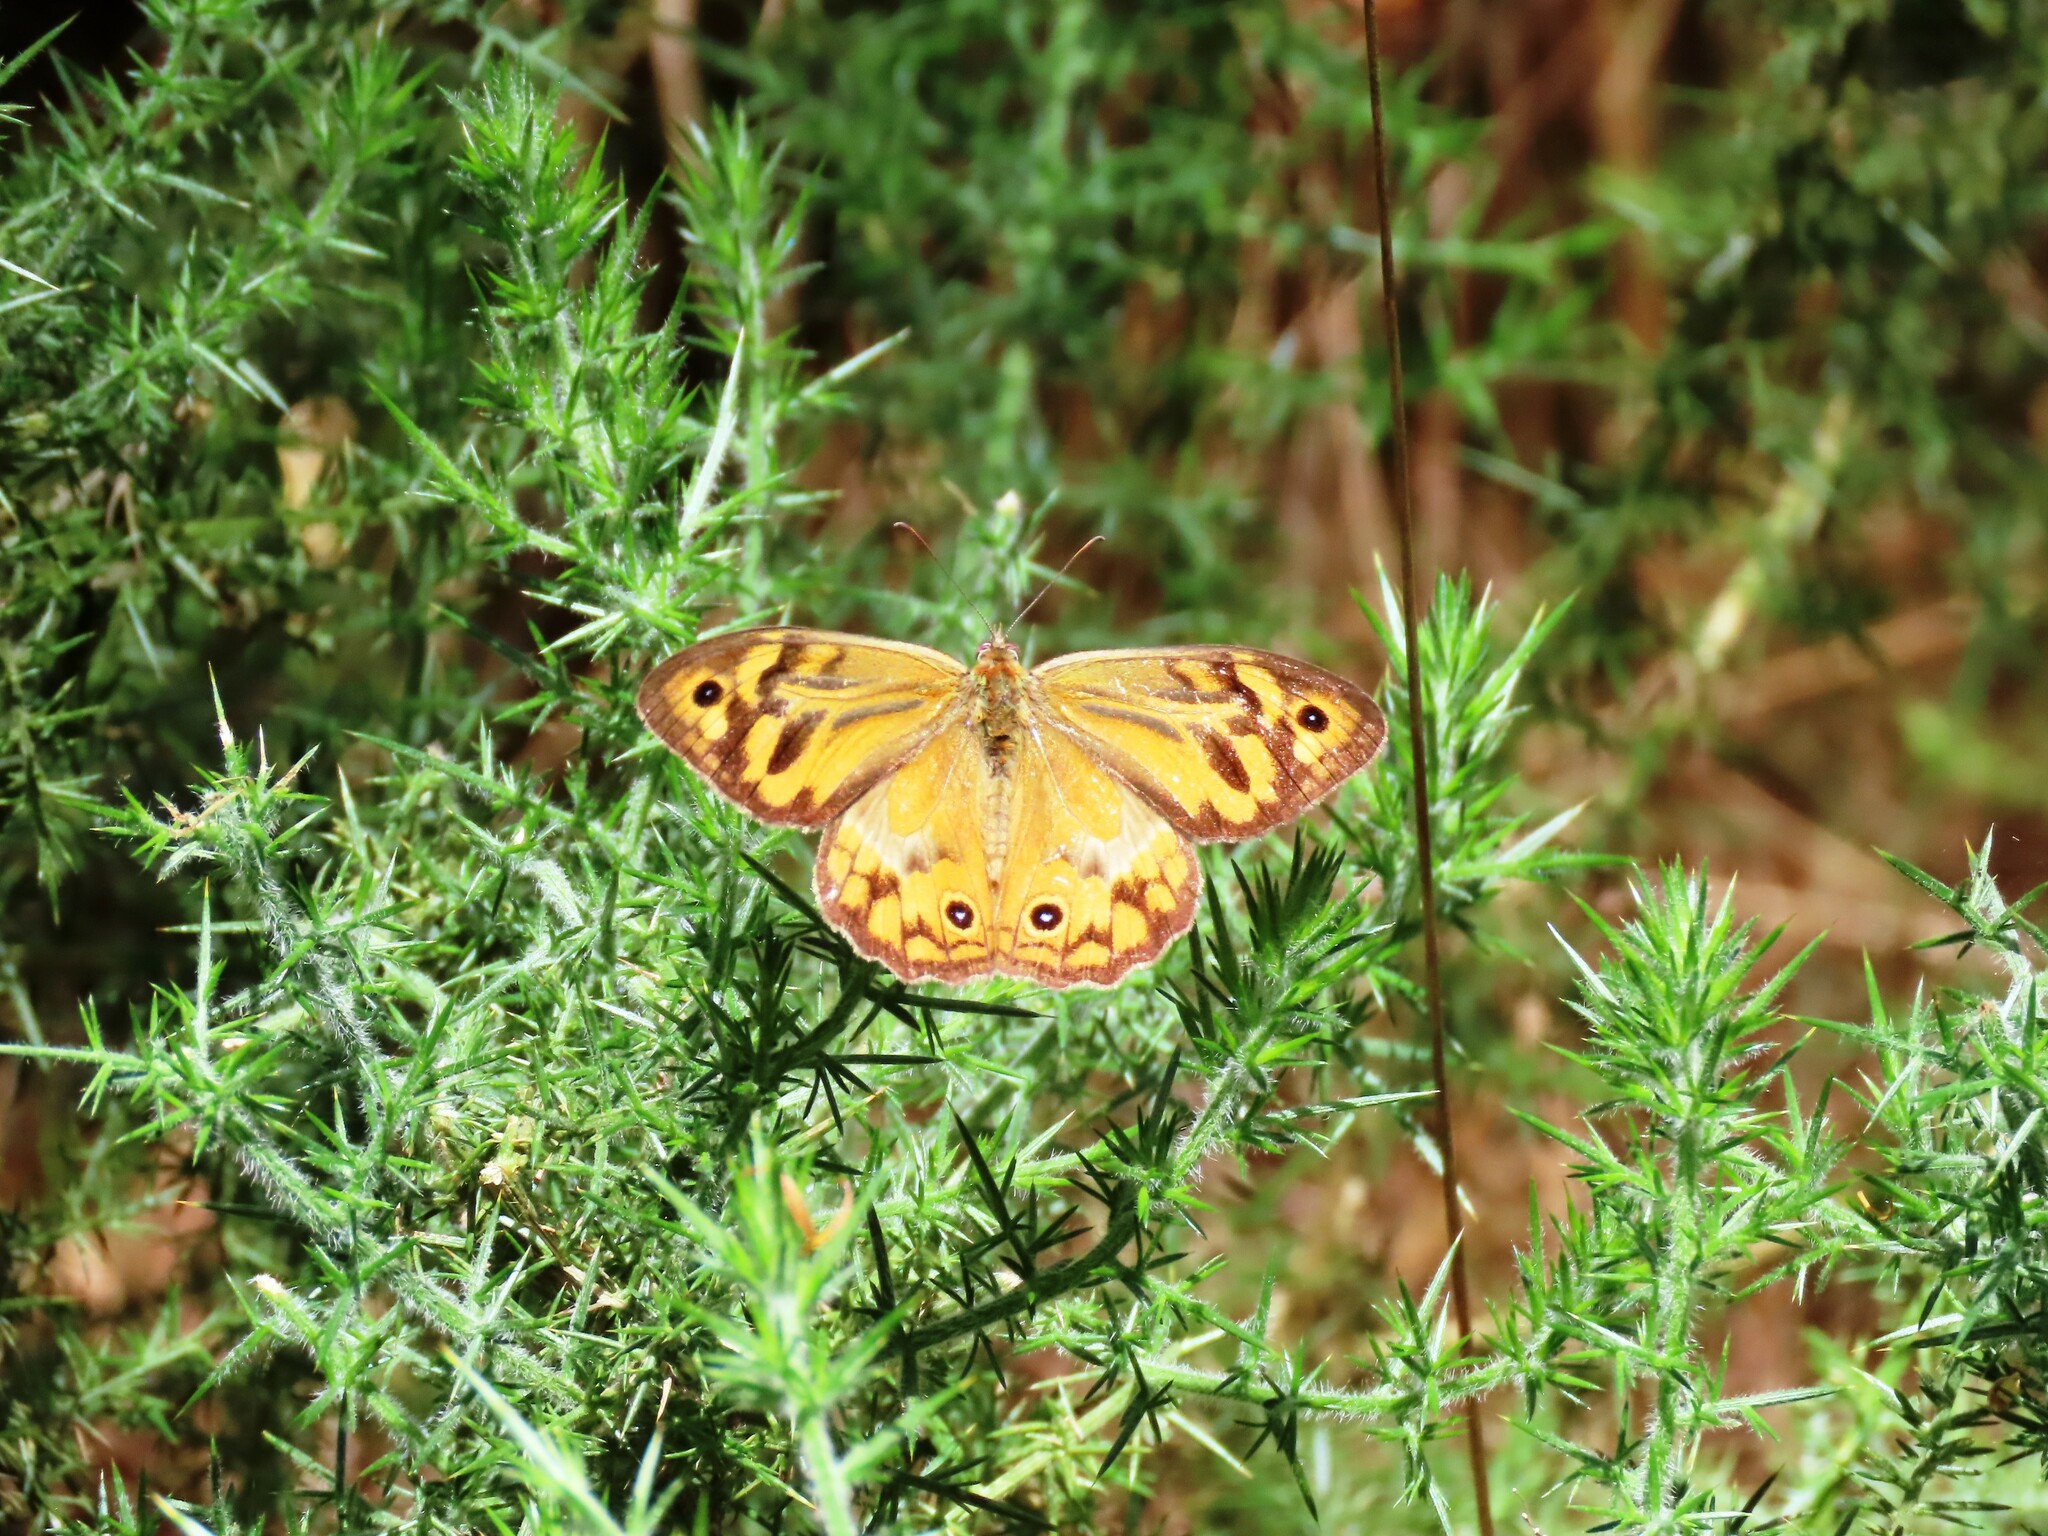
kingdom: Animalia
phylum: Arthropoda
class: Insecta
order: Lepidoptera
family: Nymphalidae
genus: Heteronympha
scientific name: Heteronympha merope
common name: Common brown
